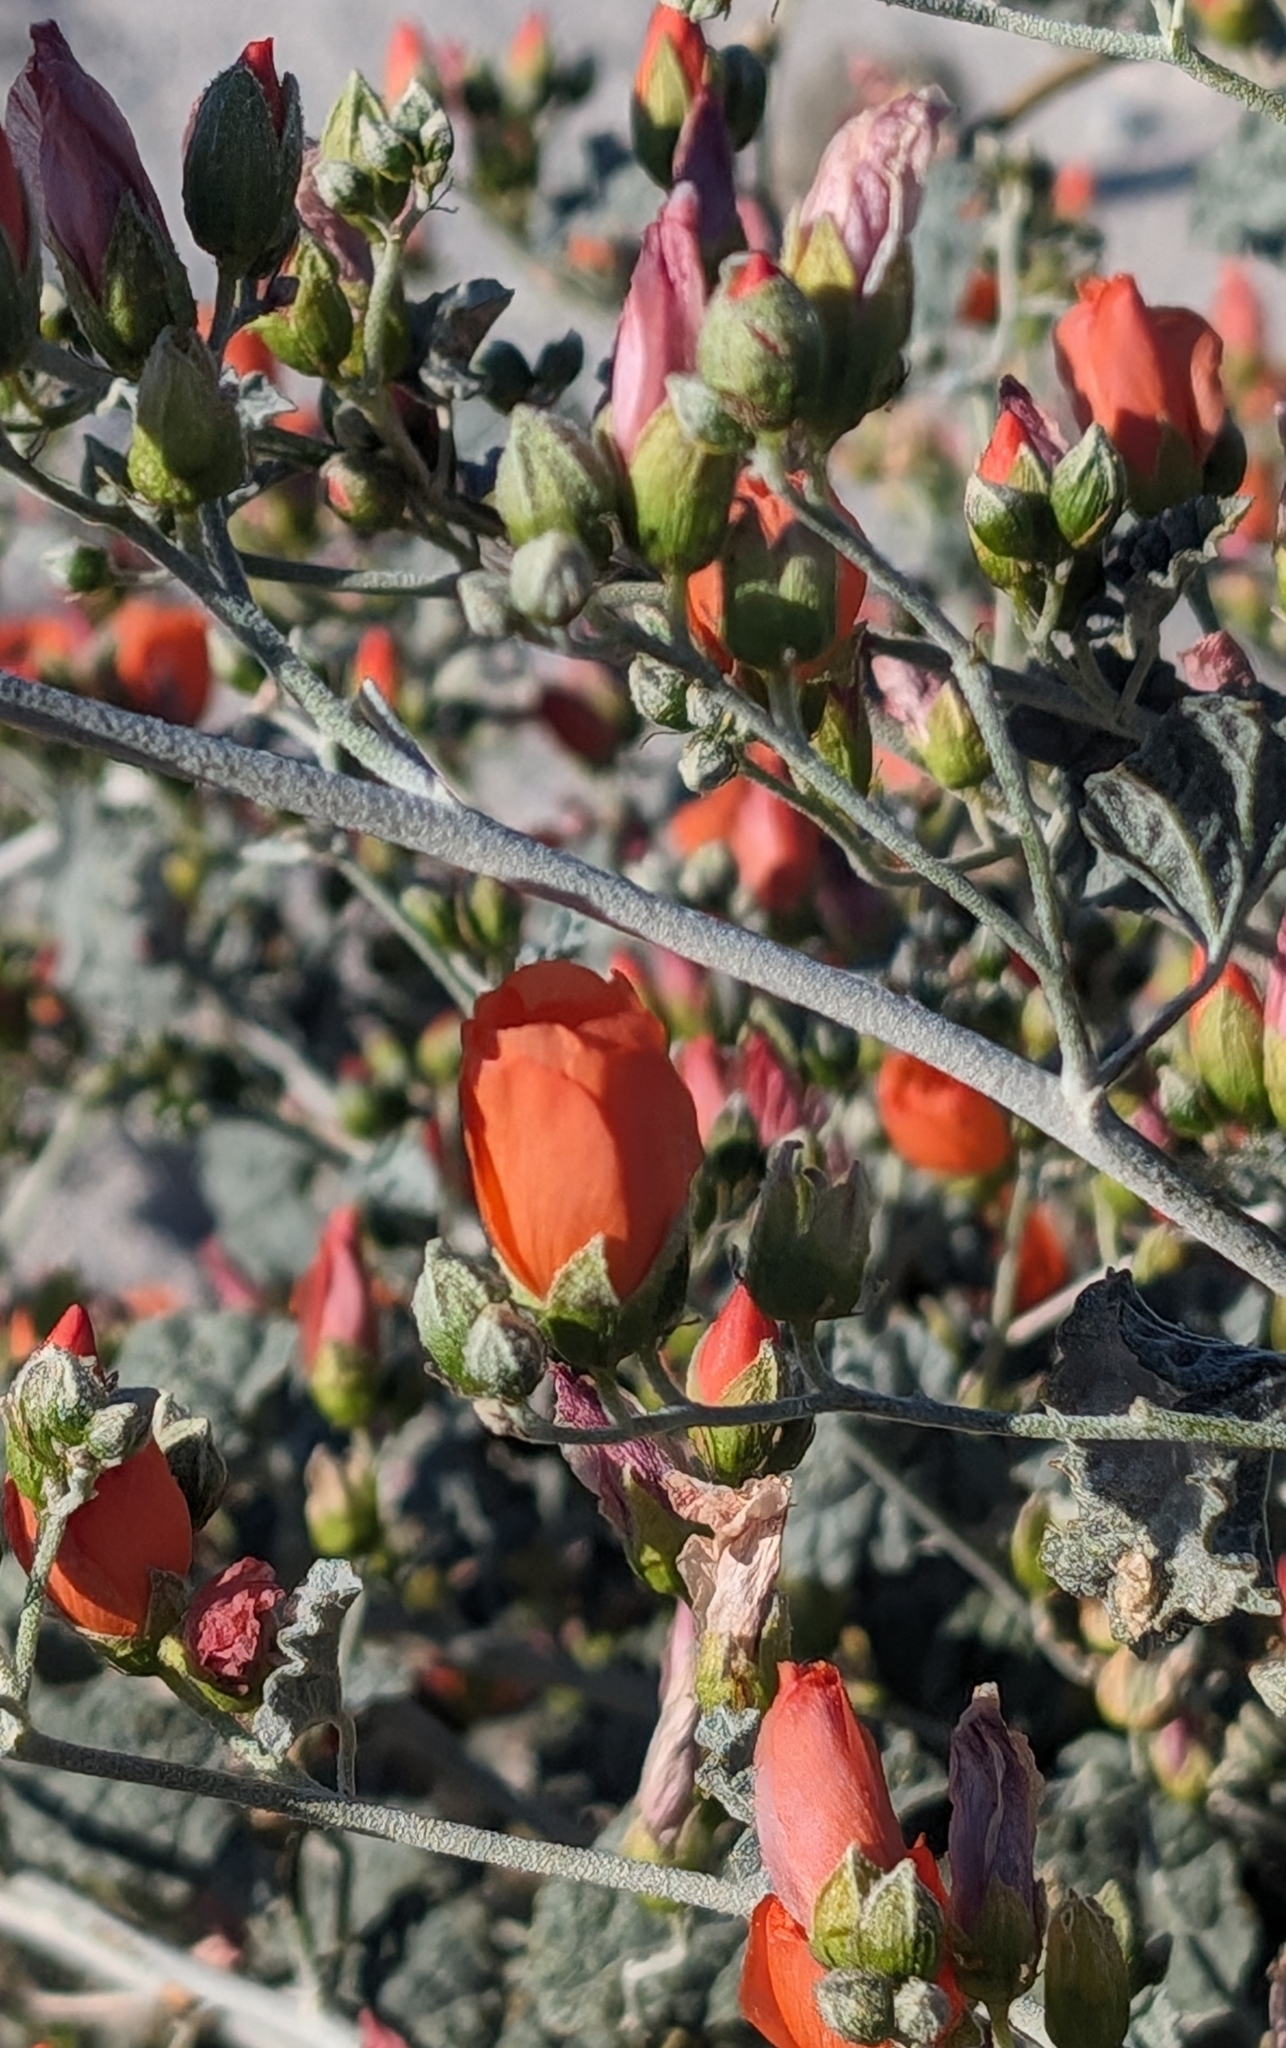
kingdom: Plantae
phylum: Tracheophyta
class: Magnoliopsida
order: Malvales
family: Malvaceae
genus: Sphaeralcea
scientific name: Sphaeralcea ambigua
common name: Apricot globe-mallow
